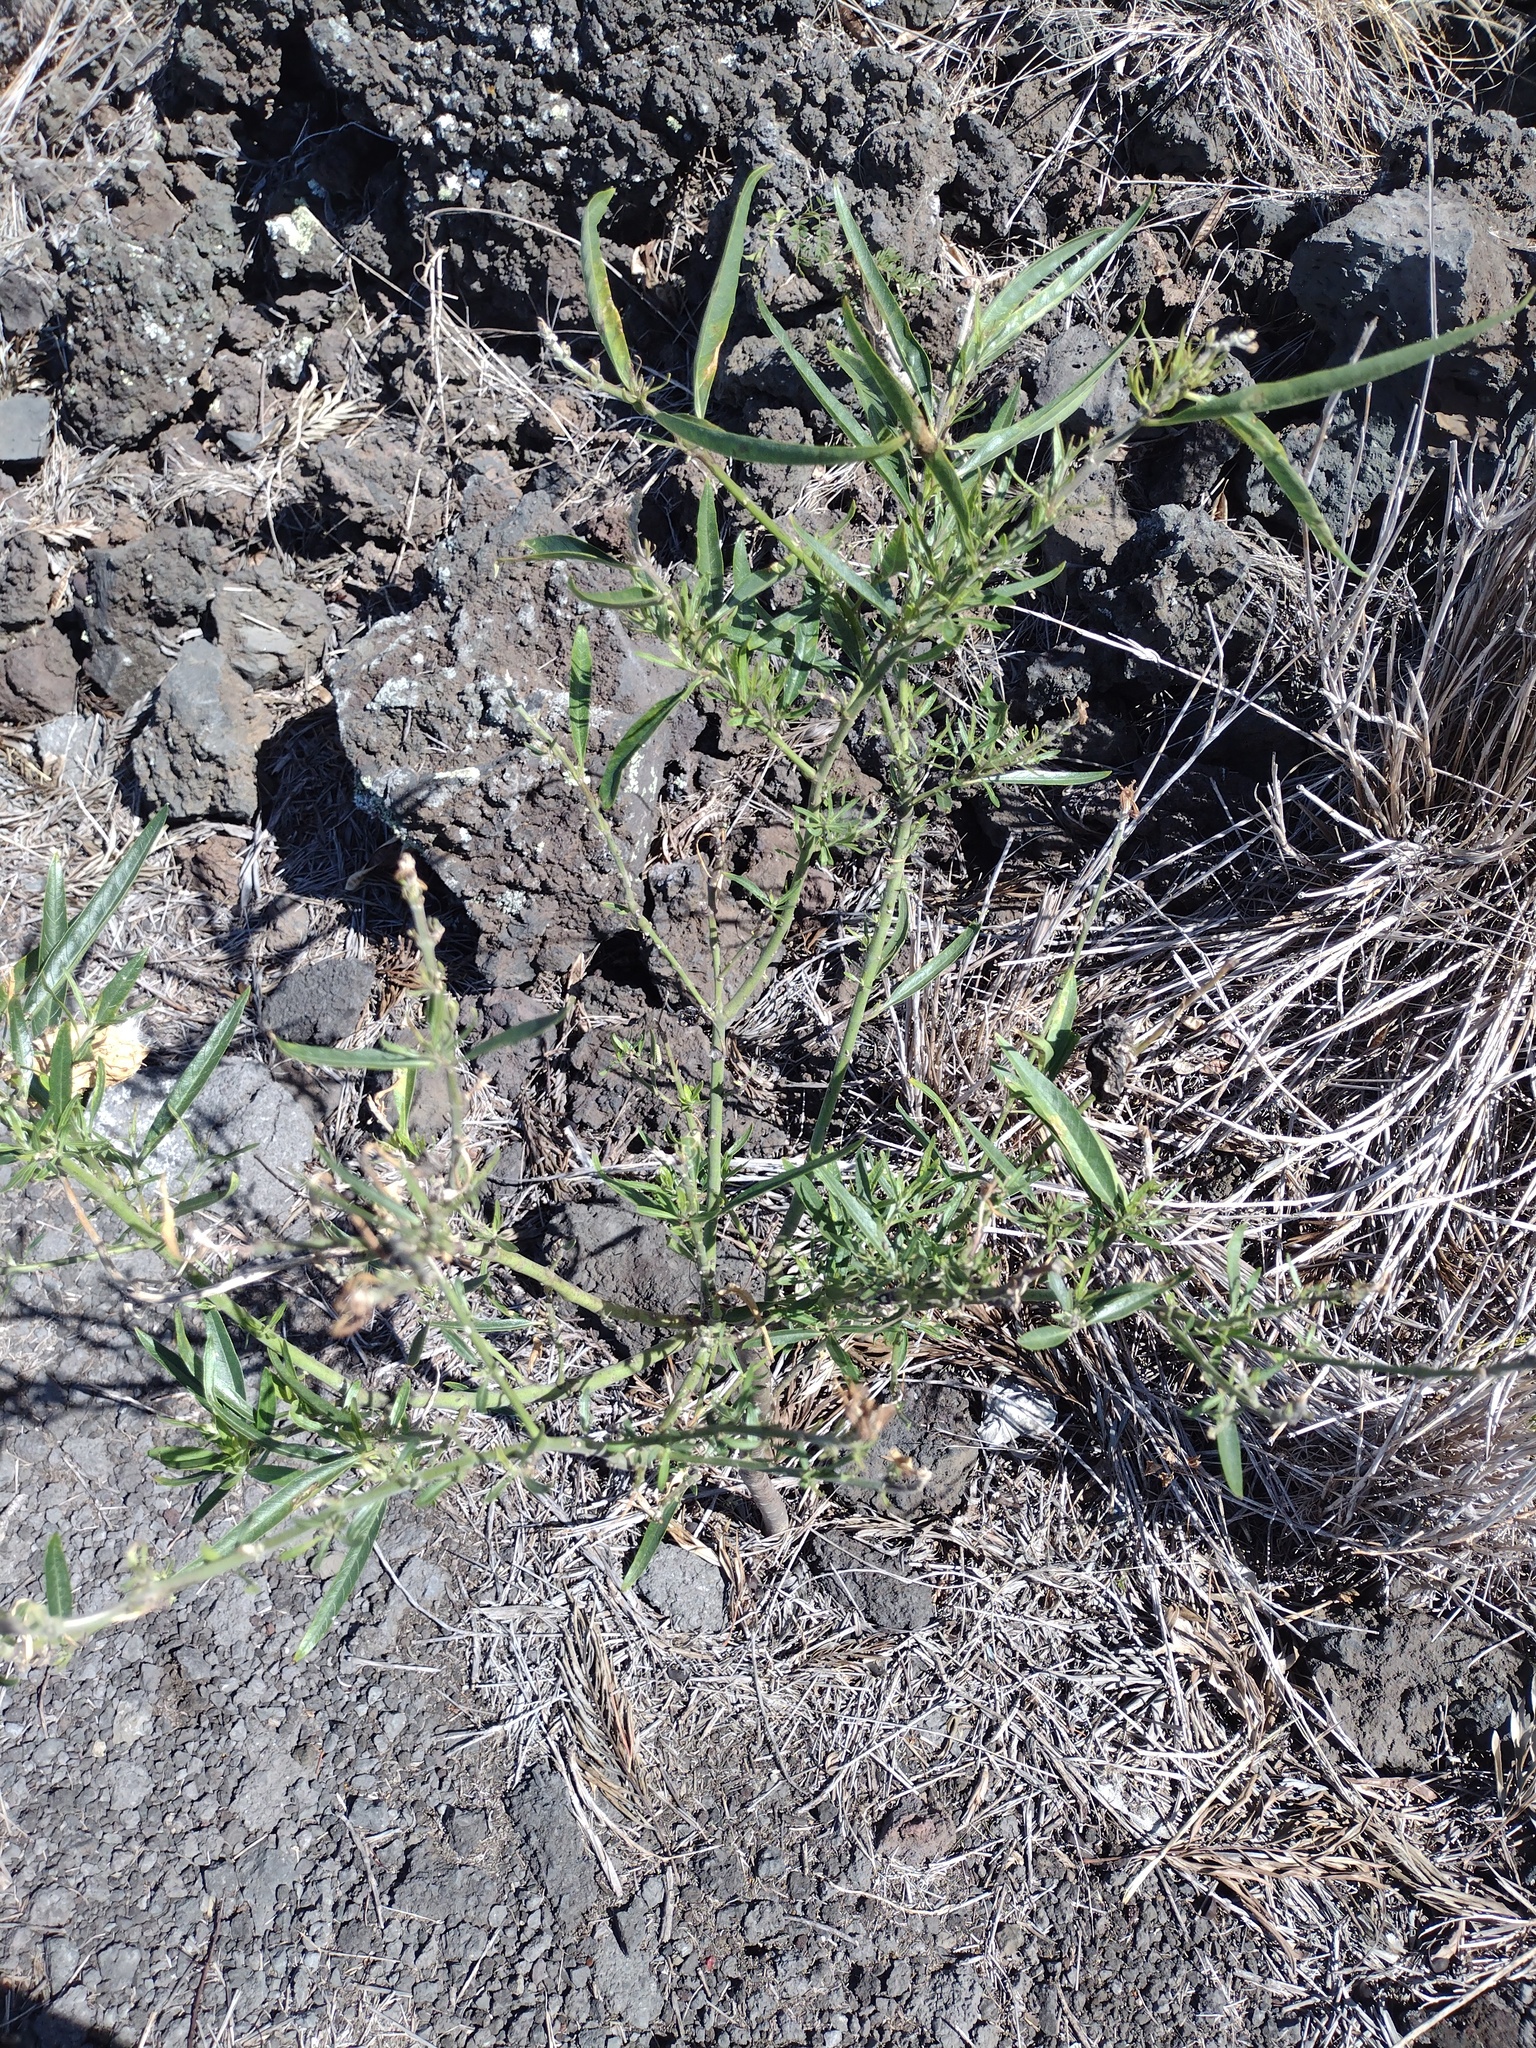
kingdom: Plantae
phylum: Tracheophyta
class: Magnoliopsida
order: Gentianales
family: Apocynaceae
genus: Gomphocarpus
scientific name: Gomphocarpus physocarpus
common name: Balloon cotton bush
